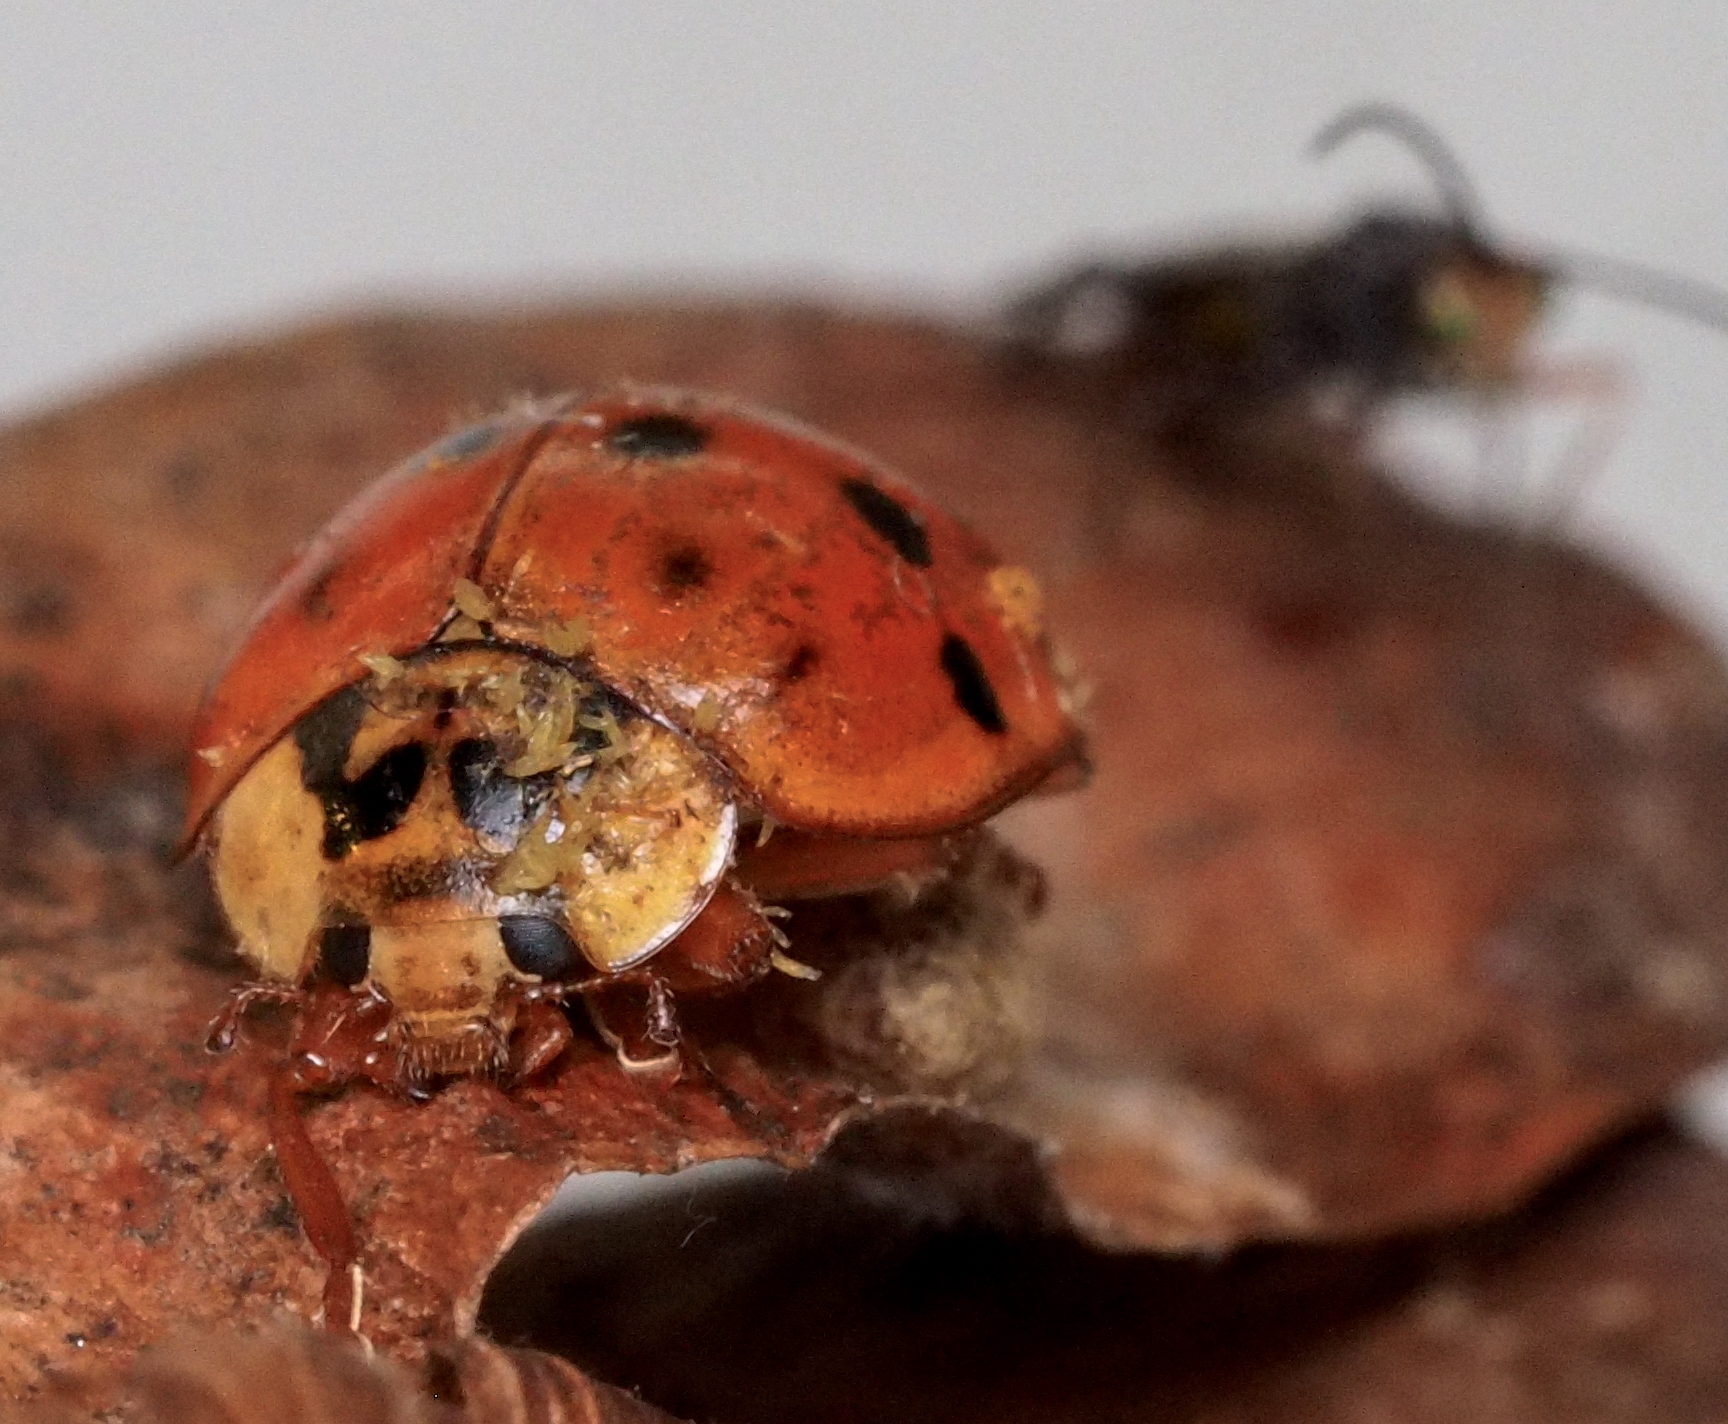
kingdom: Animalia
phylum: Arthropoda
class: Insecta
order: Coleoptera
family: Coccinellidae
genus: Harmonia
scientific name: Harmonia axyridis
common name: Harlequin ladybird
